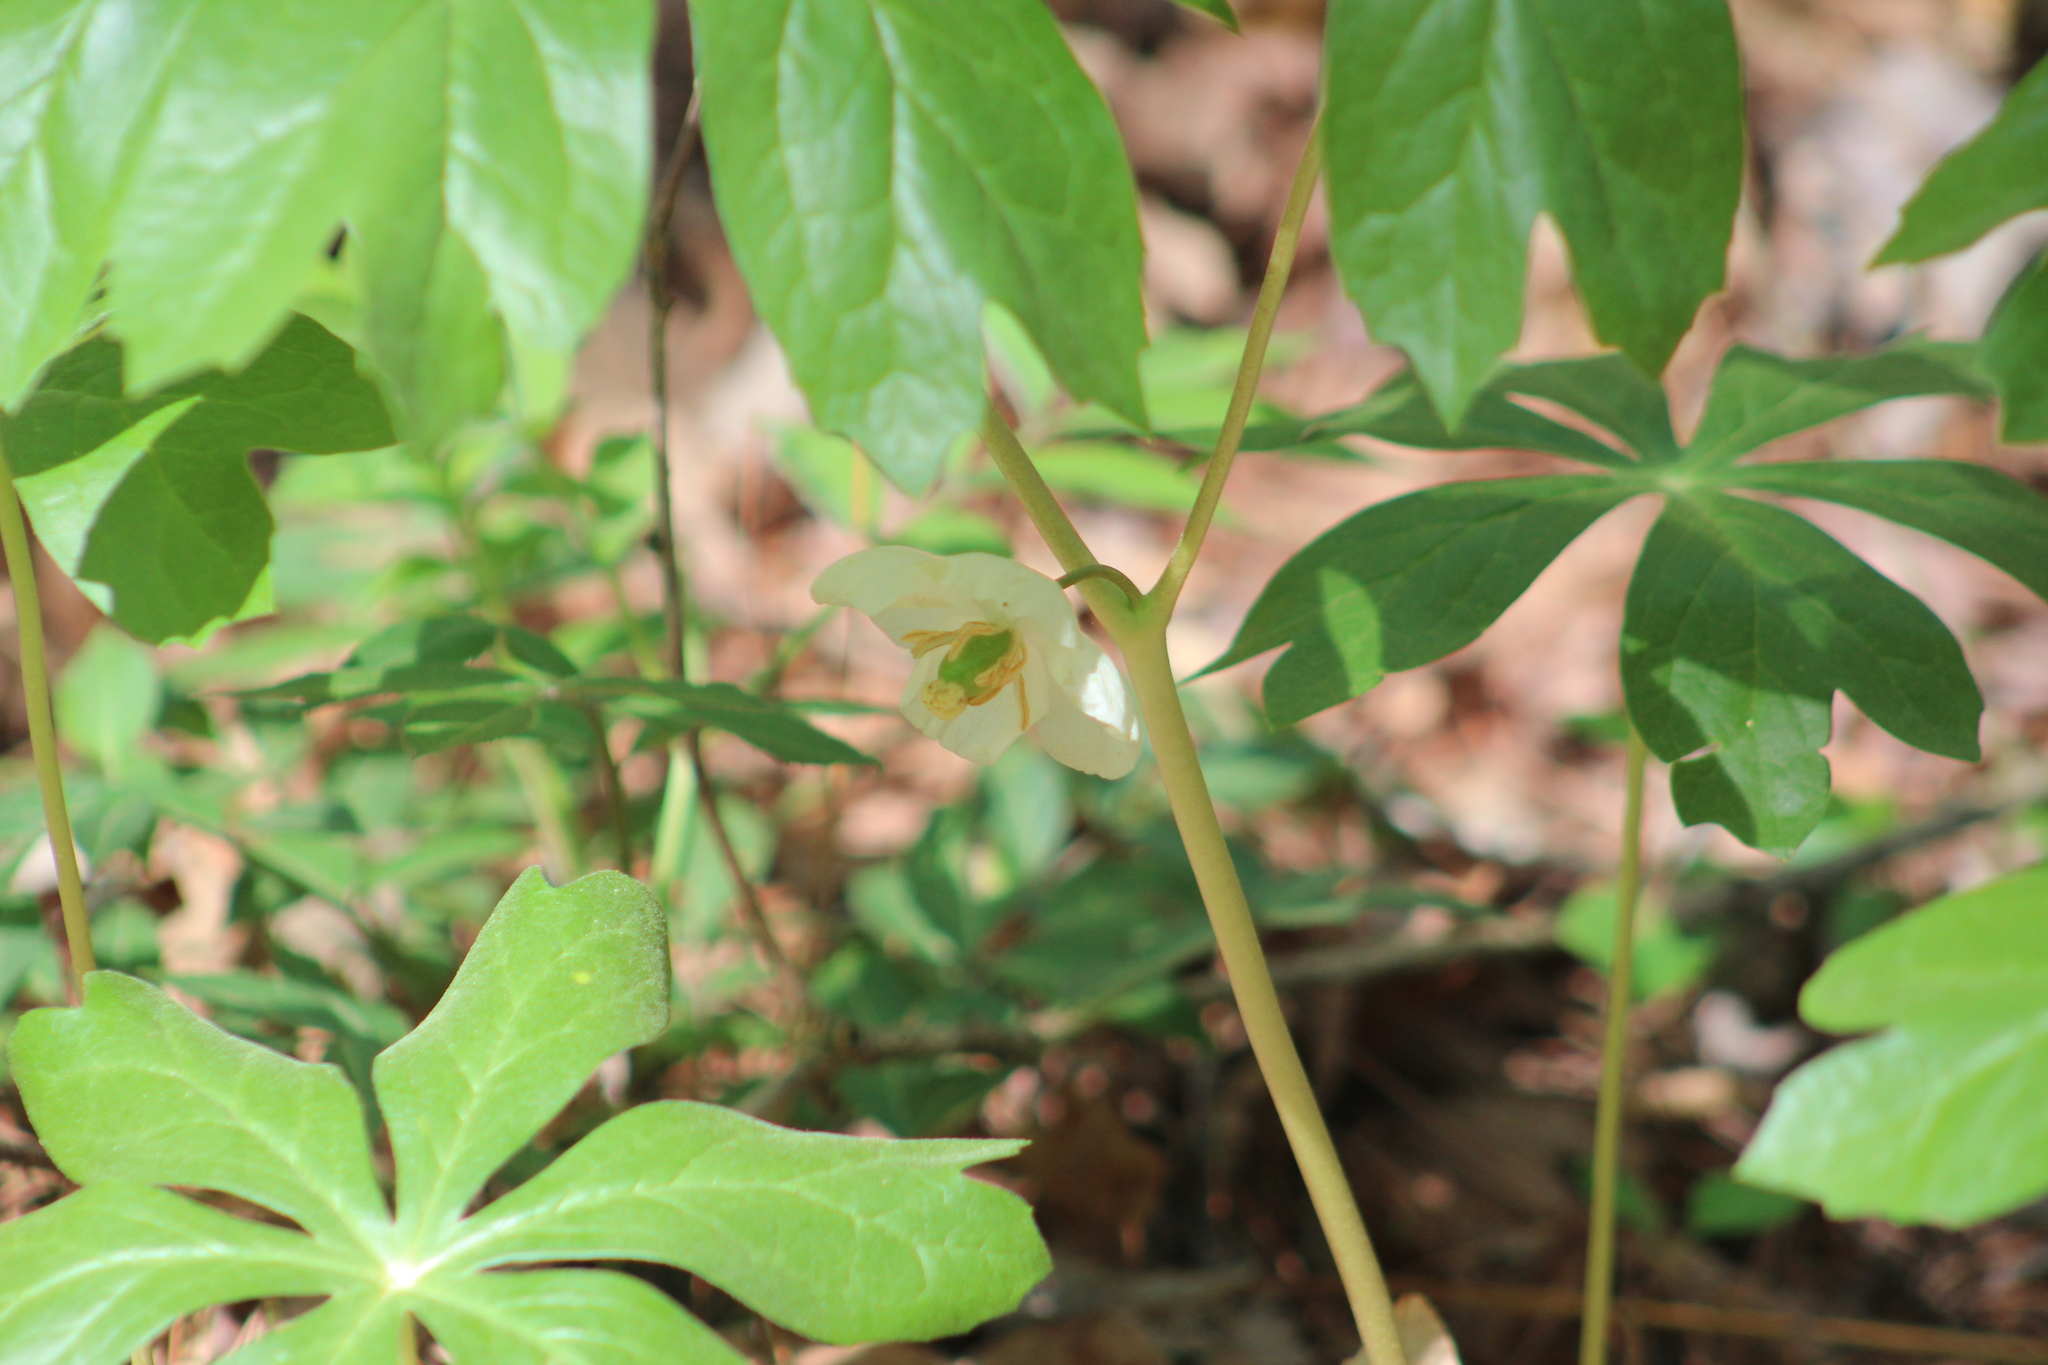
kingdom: Plantae
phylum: Tracheophyta
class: Magnoliopsida
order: Ranunculales
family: Berberidaceae
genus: Podophyllum
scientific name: Podophyllum peltatum
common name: Wild mandrake
